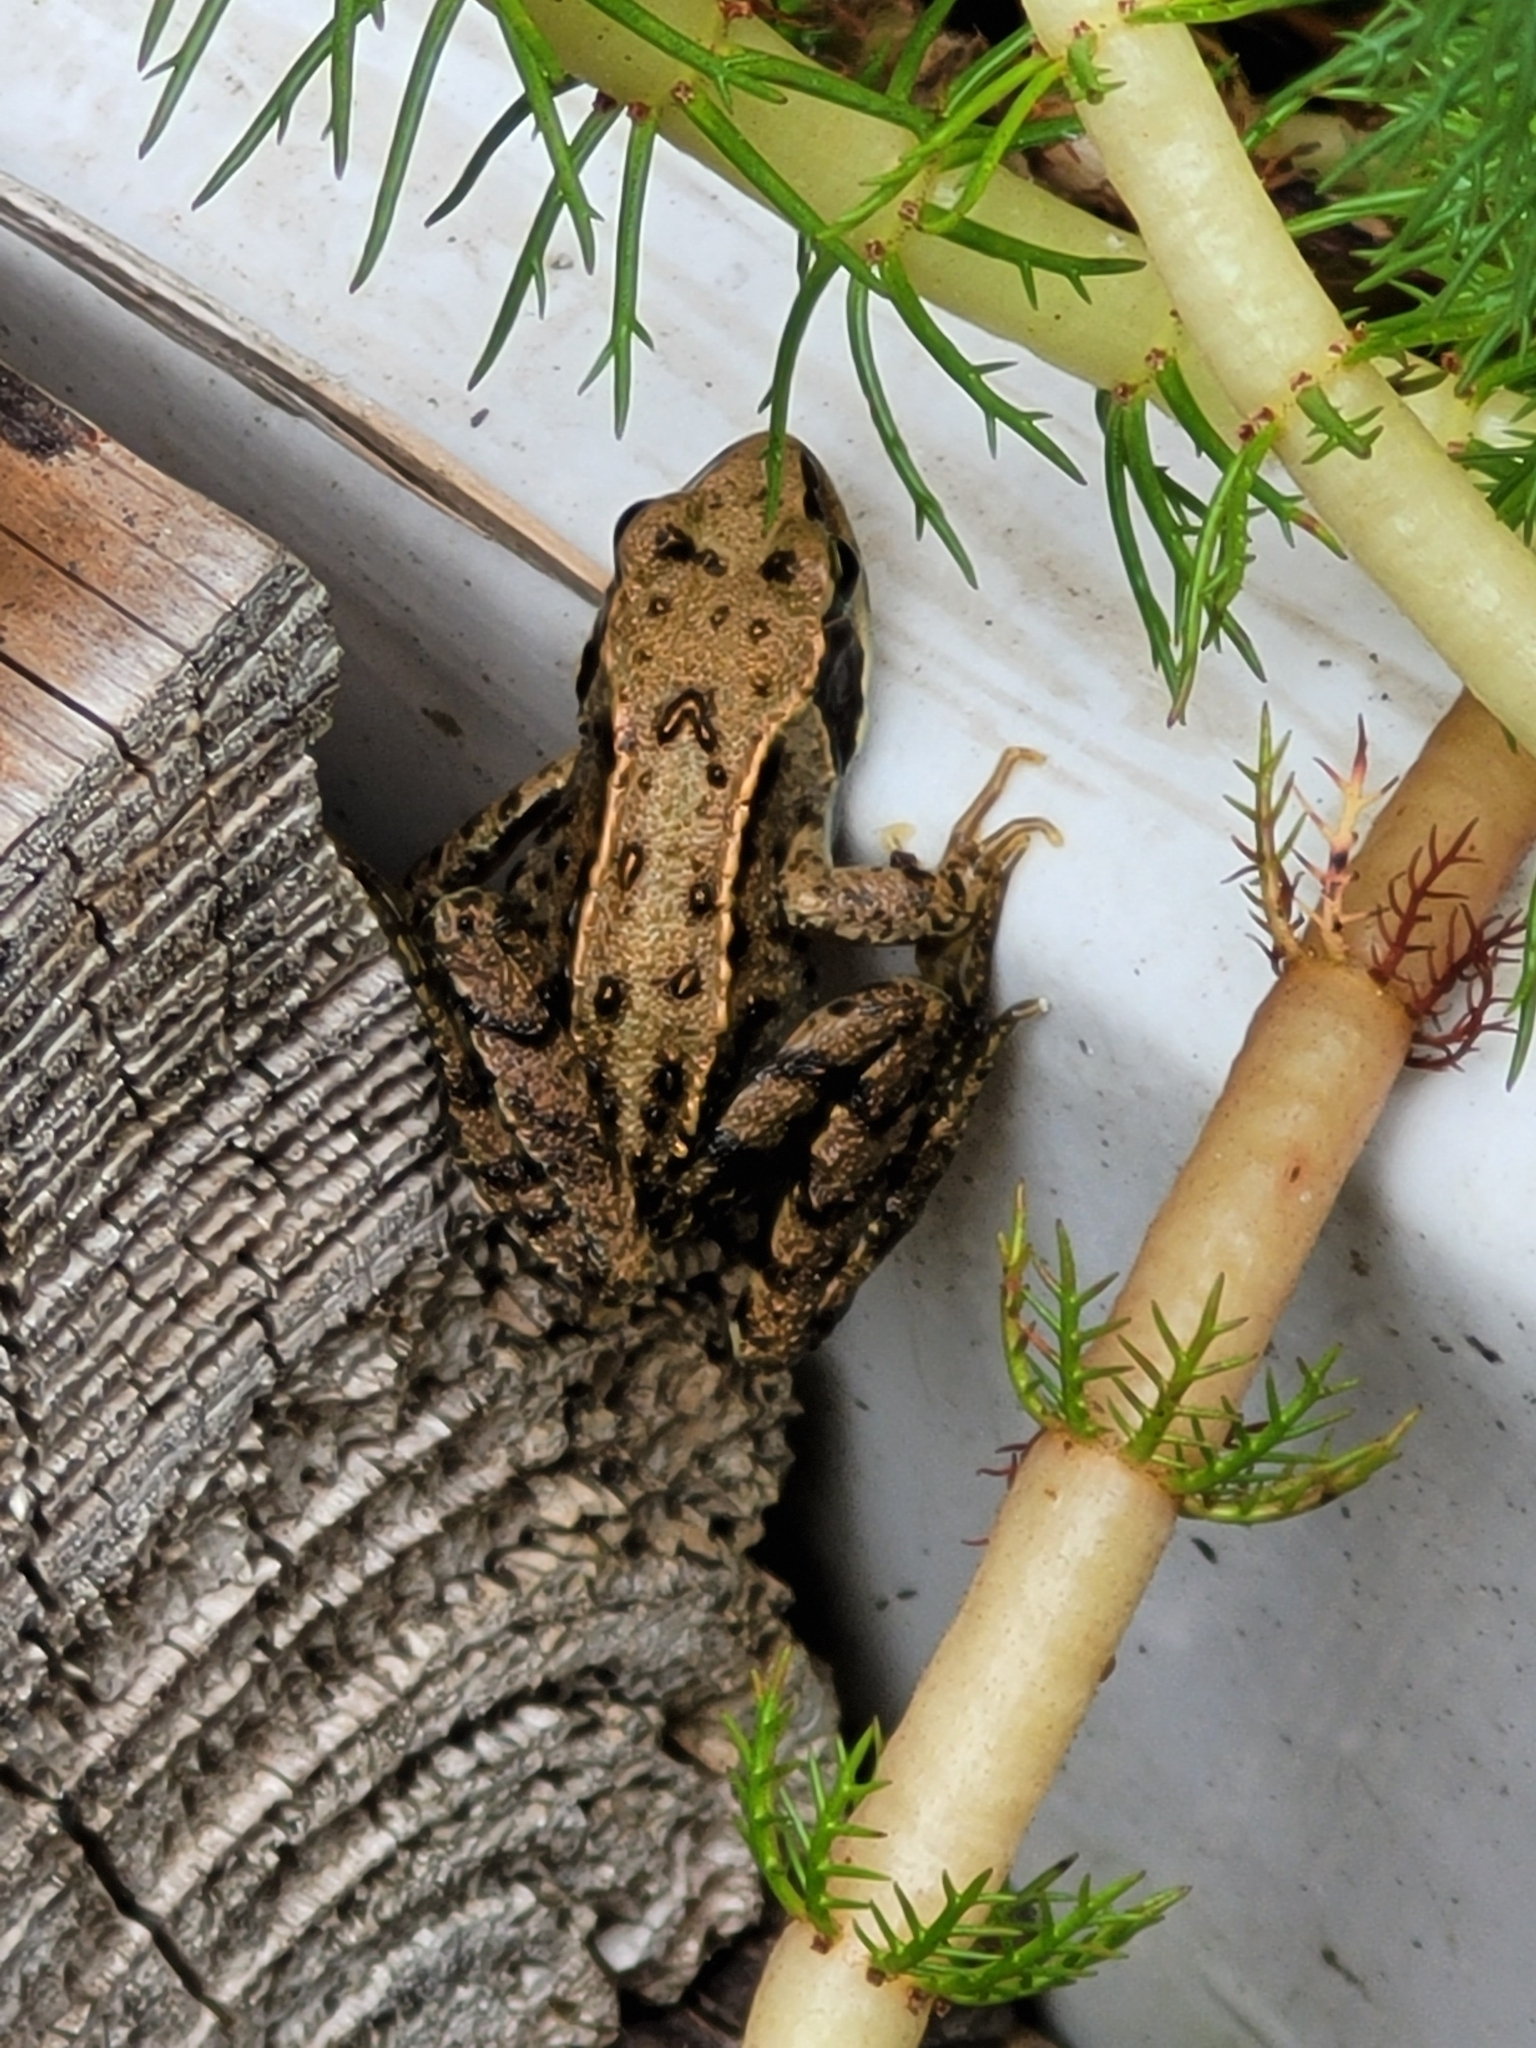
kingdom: Animalia
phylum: Chordata
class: Amphibia
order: Anura
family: Ranidae
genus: Rana
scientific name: Rana temporaria
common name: Common frog
